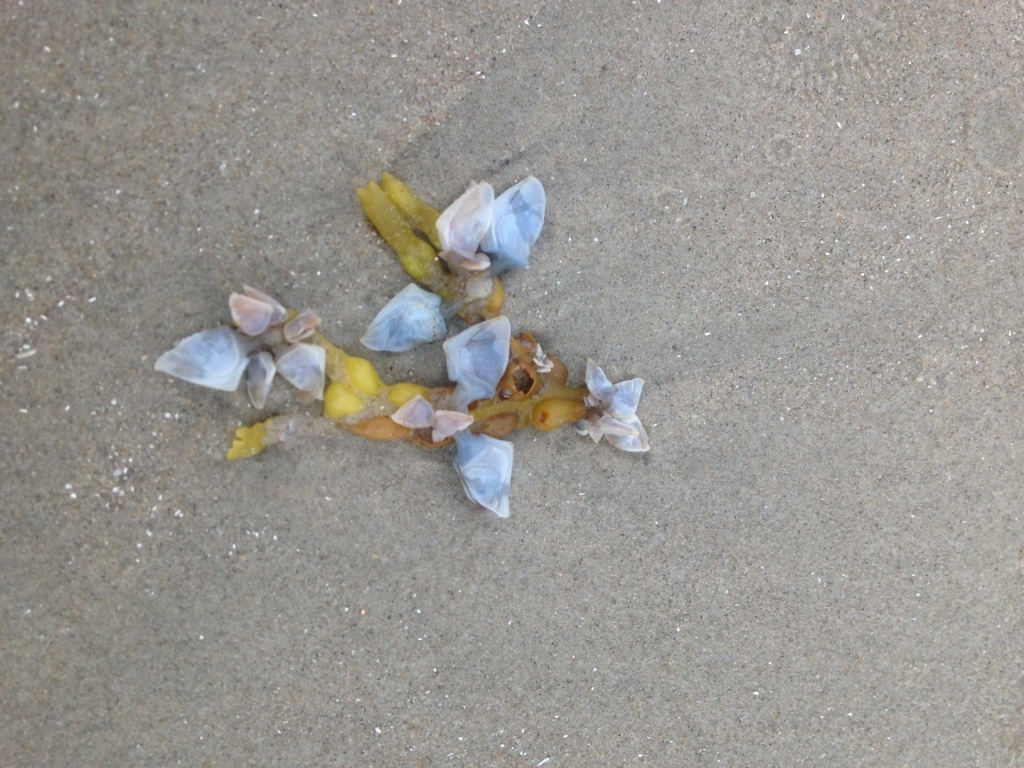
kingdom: Animalia
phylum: Arthropoda
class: Maxillopoda
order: Pedunculata
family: Lepadidae
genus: Dosima
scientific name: Dosima fascicularis
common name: Buoy barnacle
